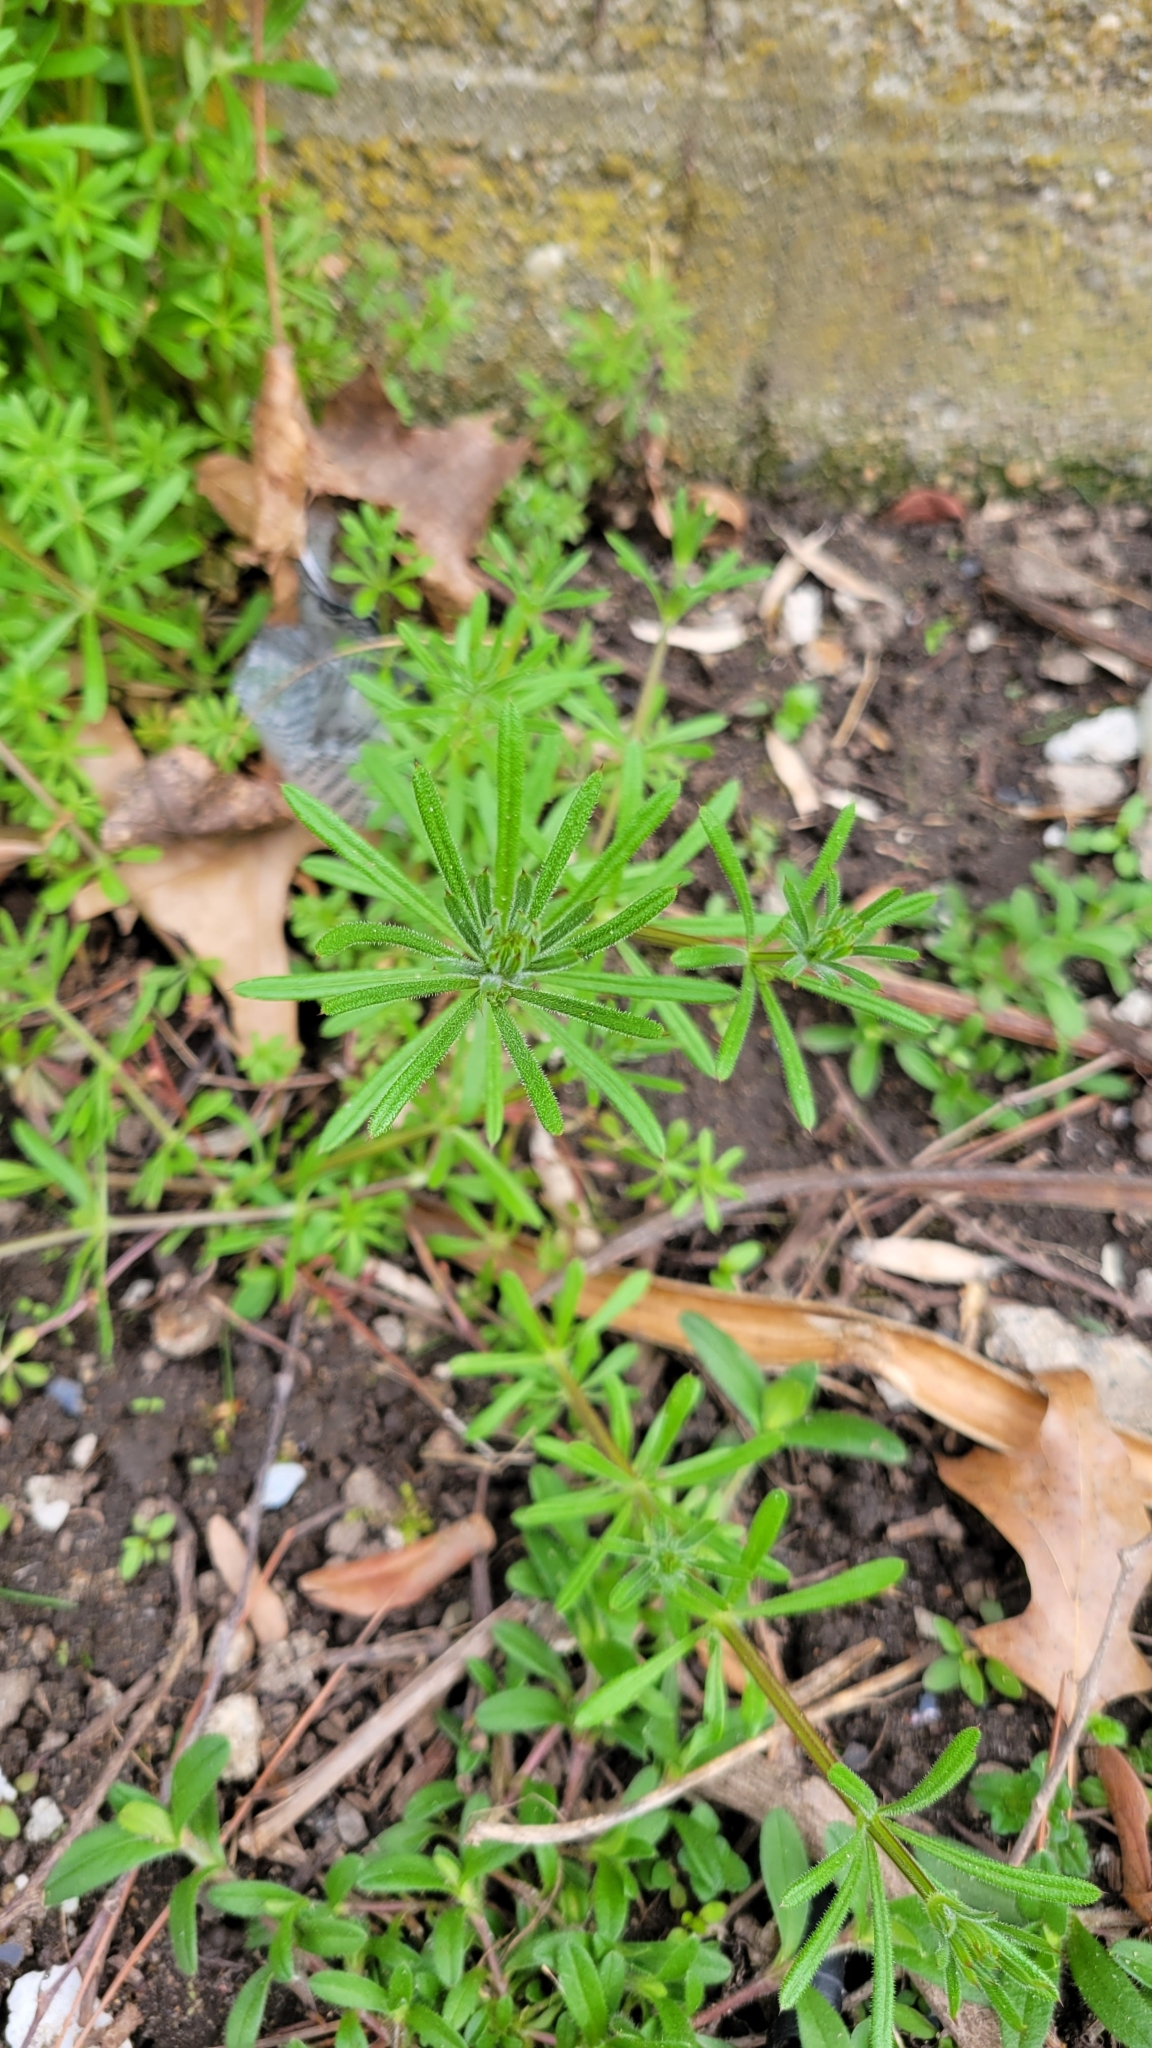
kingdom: Plantae
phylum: Tracheophyta
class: Magnoliopsida
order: Gentianales
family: Rubiaceae
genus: Galium
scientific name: Galium aparine
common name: Cleavers
